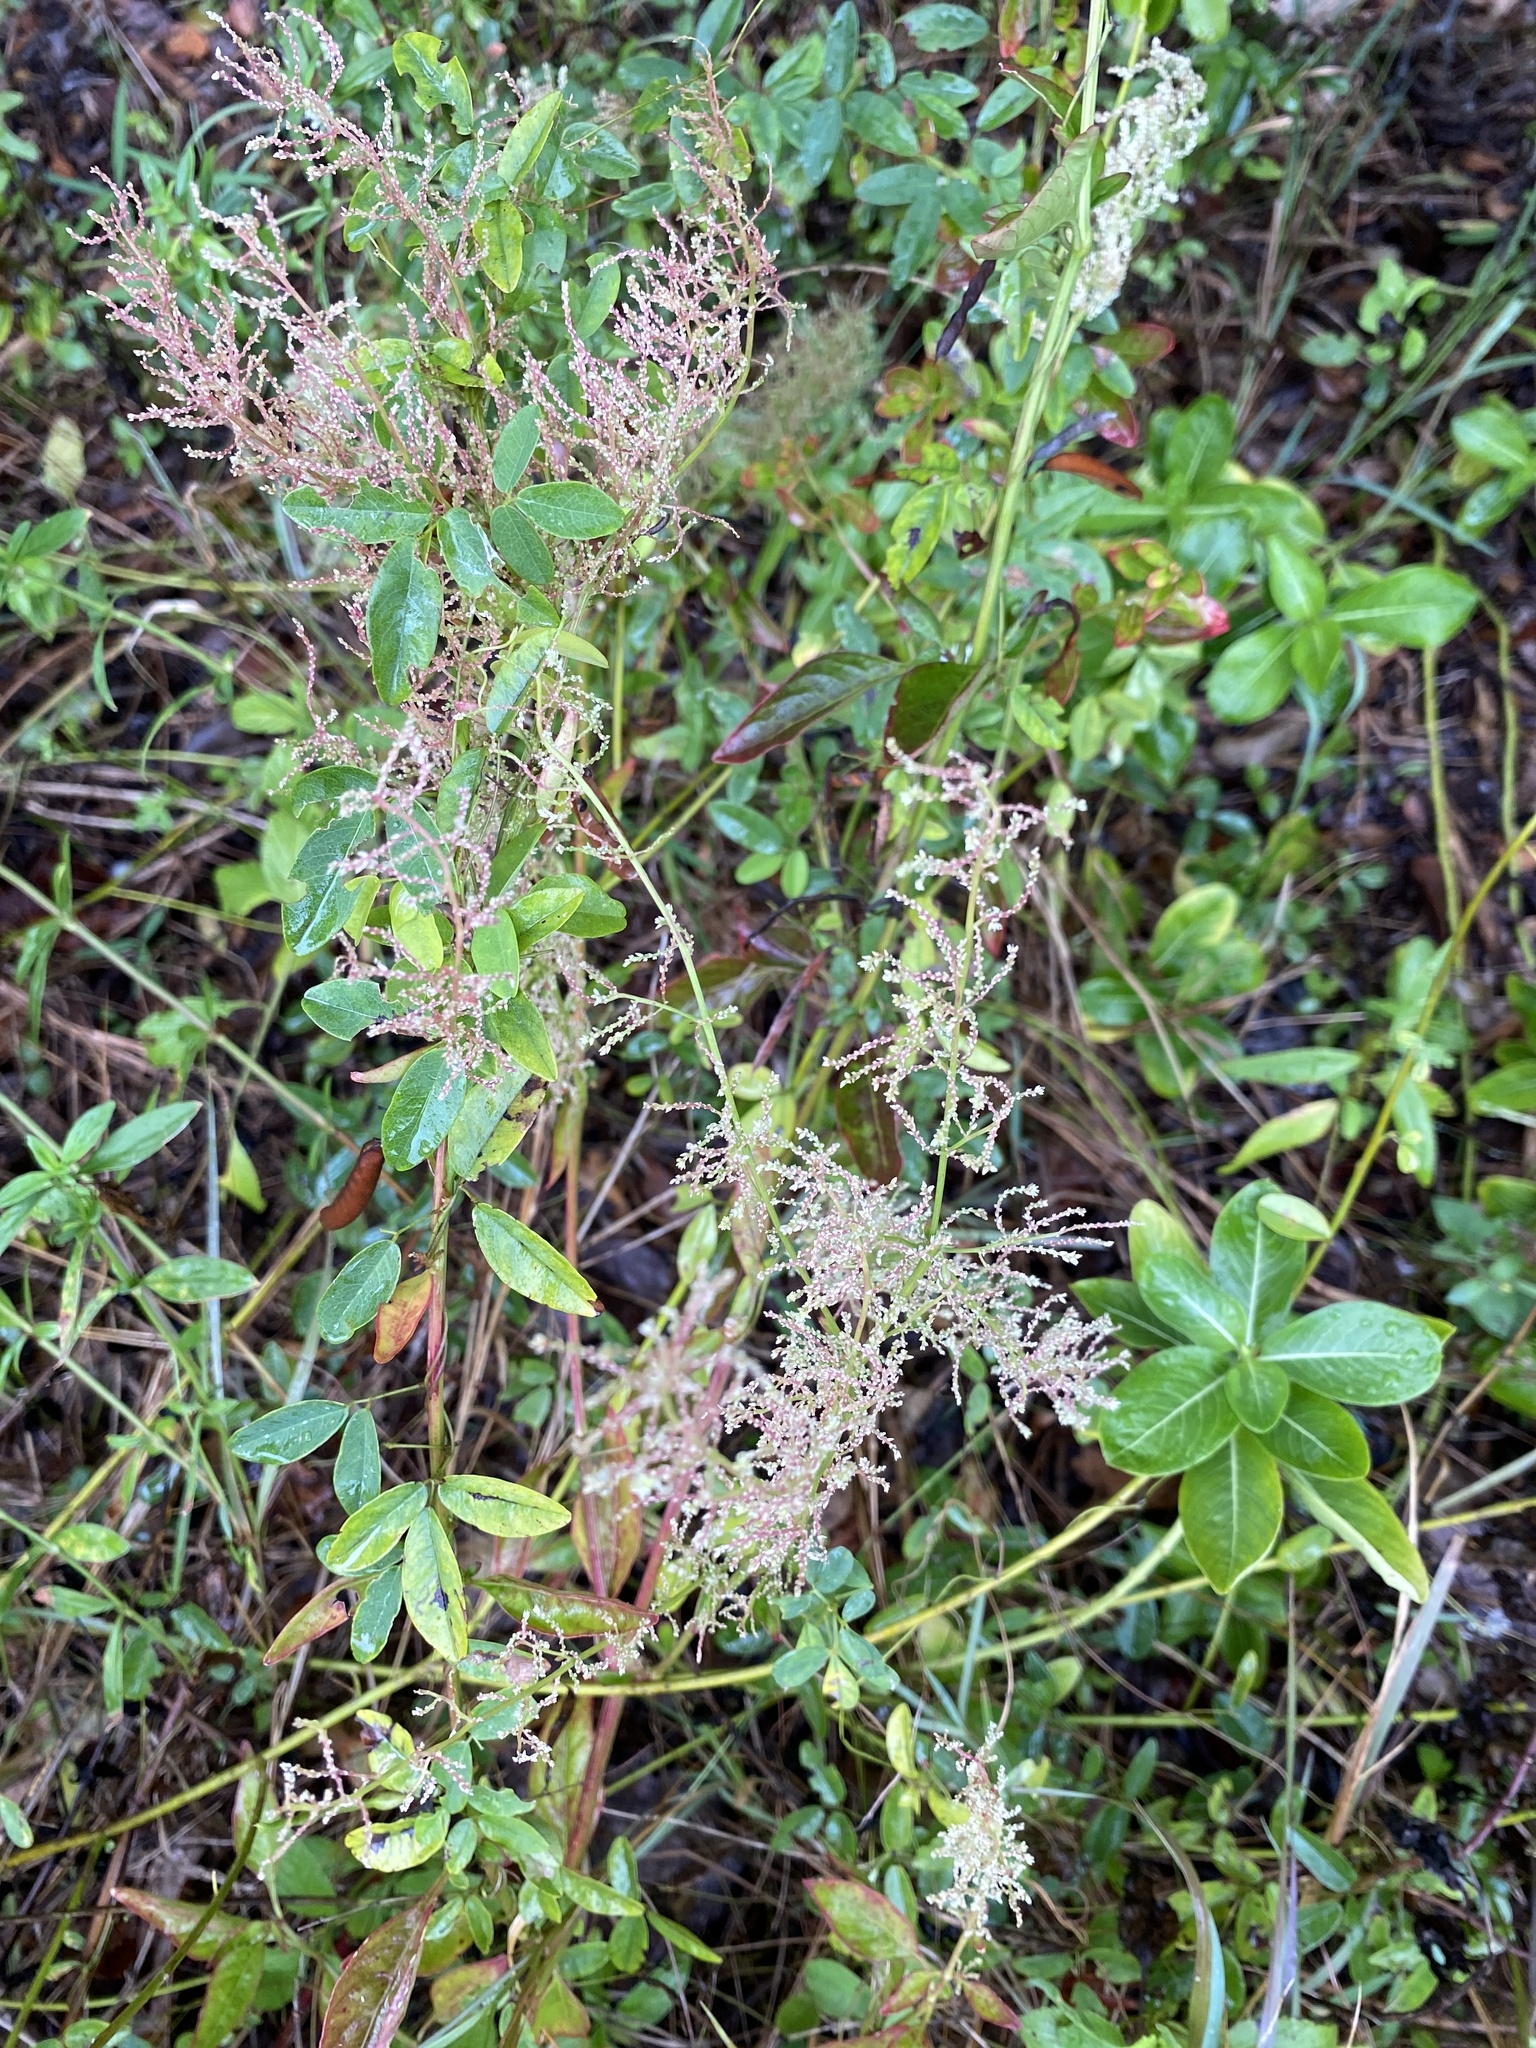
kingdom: Plantae
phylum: Tracheophyta
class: Magnoliopsida
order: Caryophyllales
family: Amaranthaceae
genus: Iresine
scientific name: Iresine diffusa
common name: Juba's-bush
